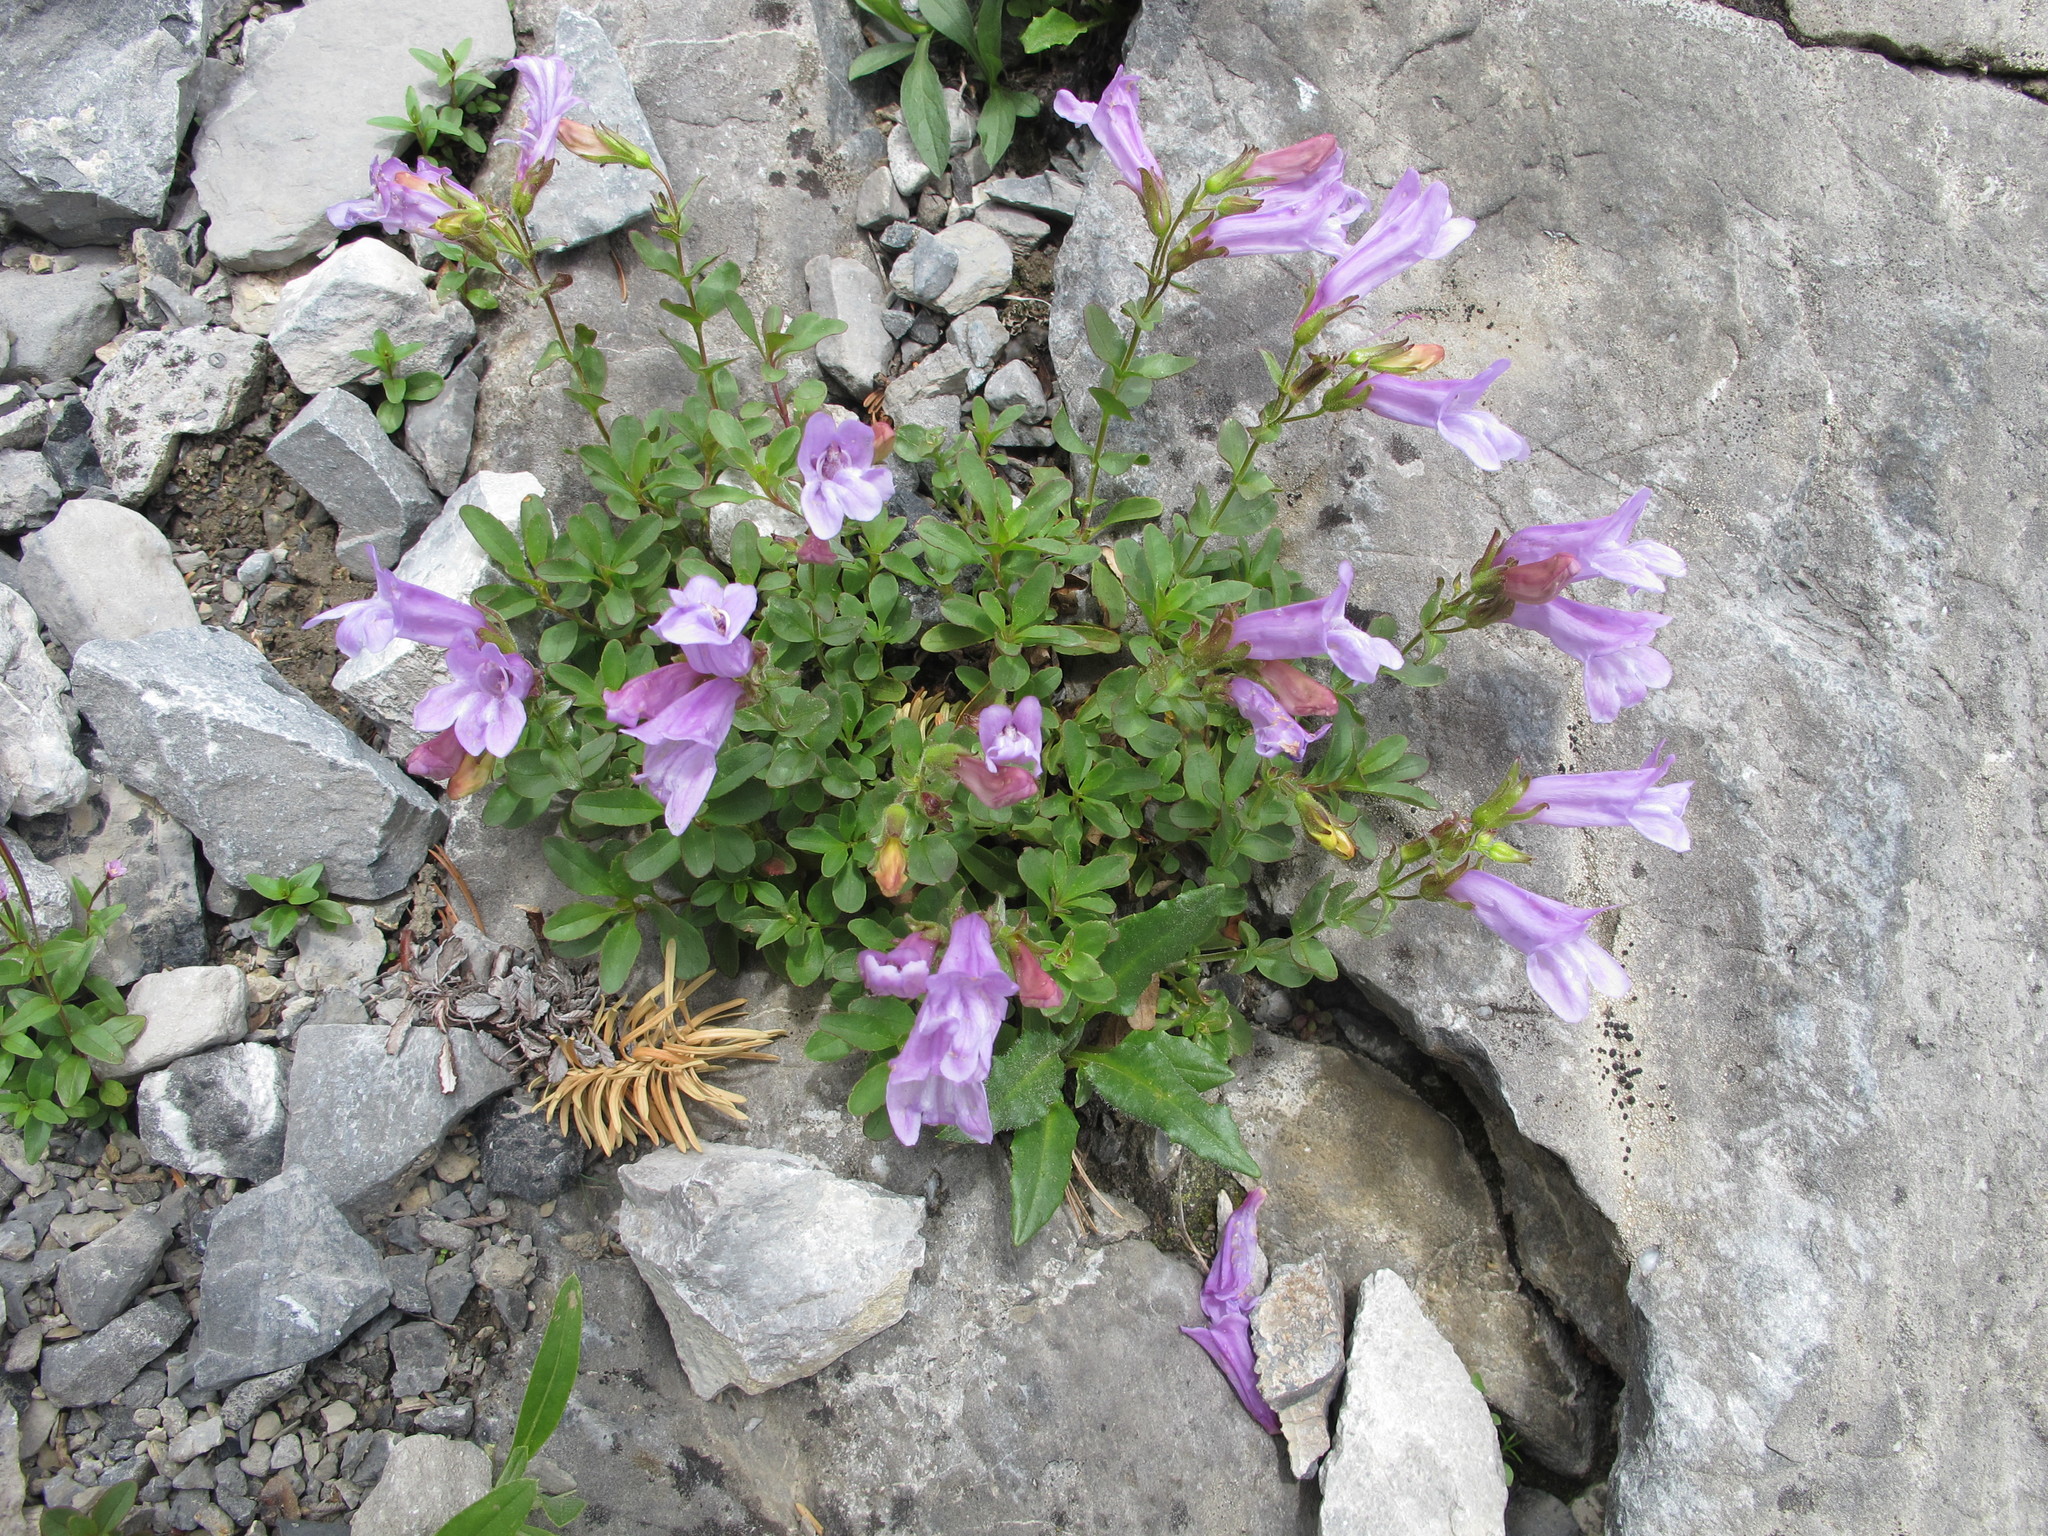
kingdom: Plantae
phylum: Tracheophyta
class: Magnoliopsida
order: Lamiales
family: Plantaginaceae
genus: Penstemon
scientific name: Penstemon ellipticus
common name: Alpine beardtongue
